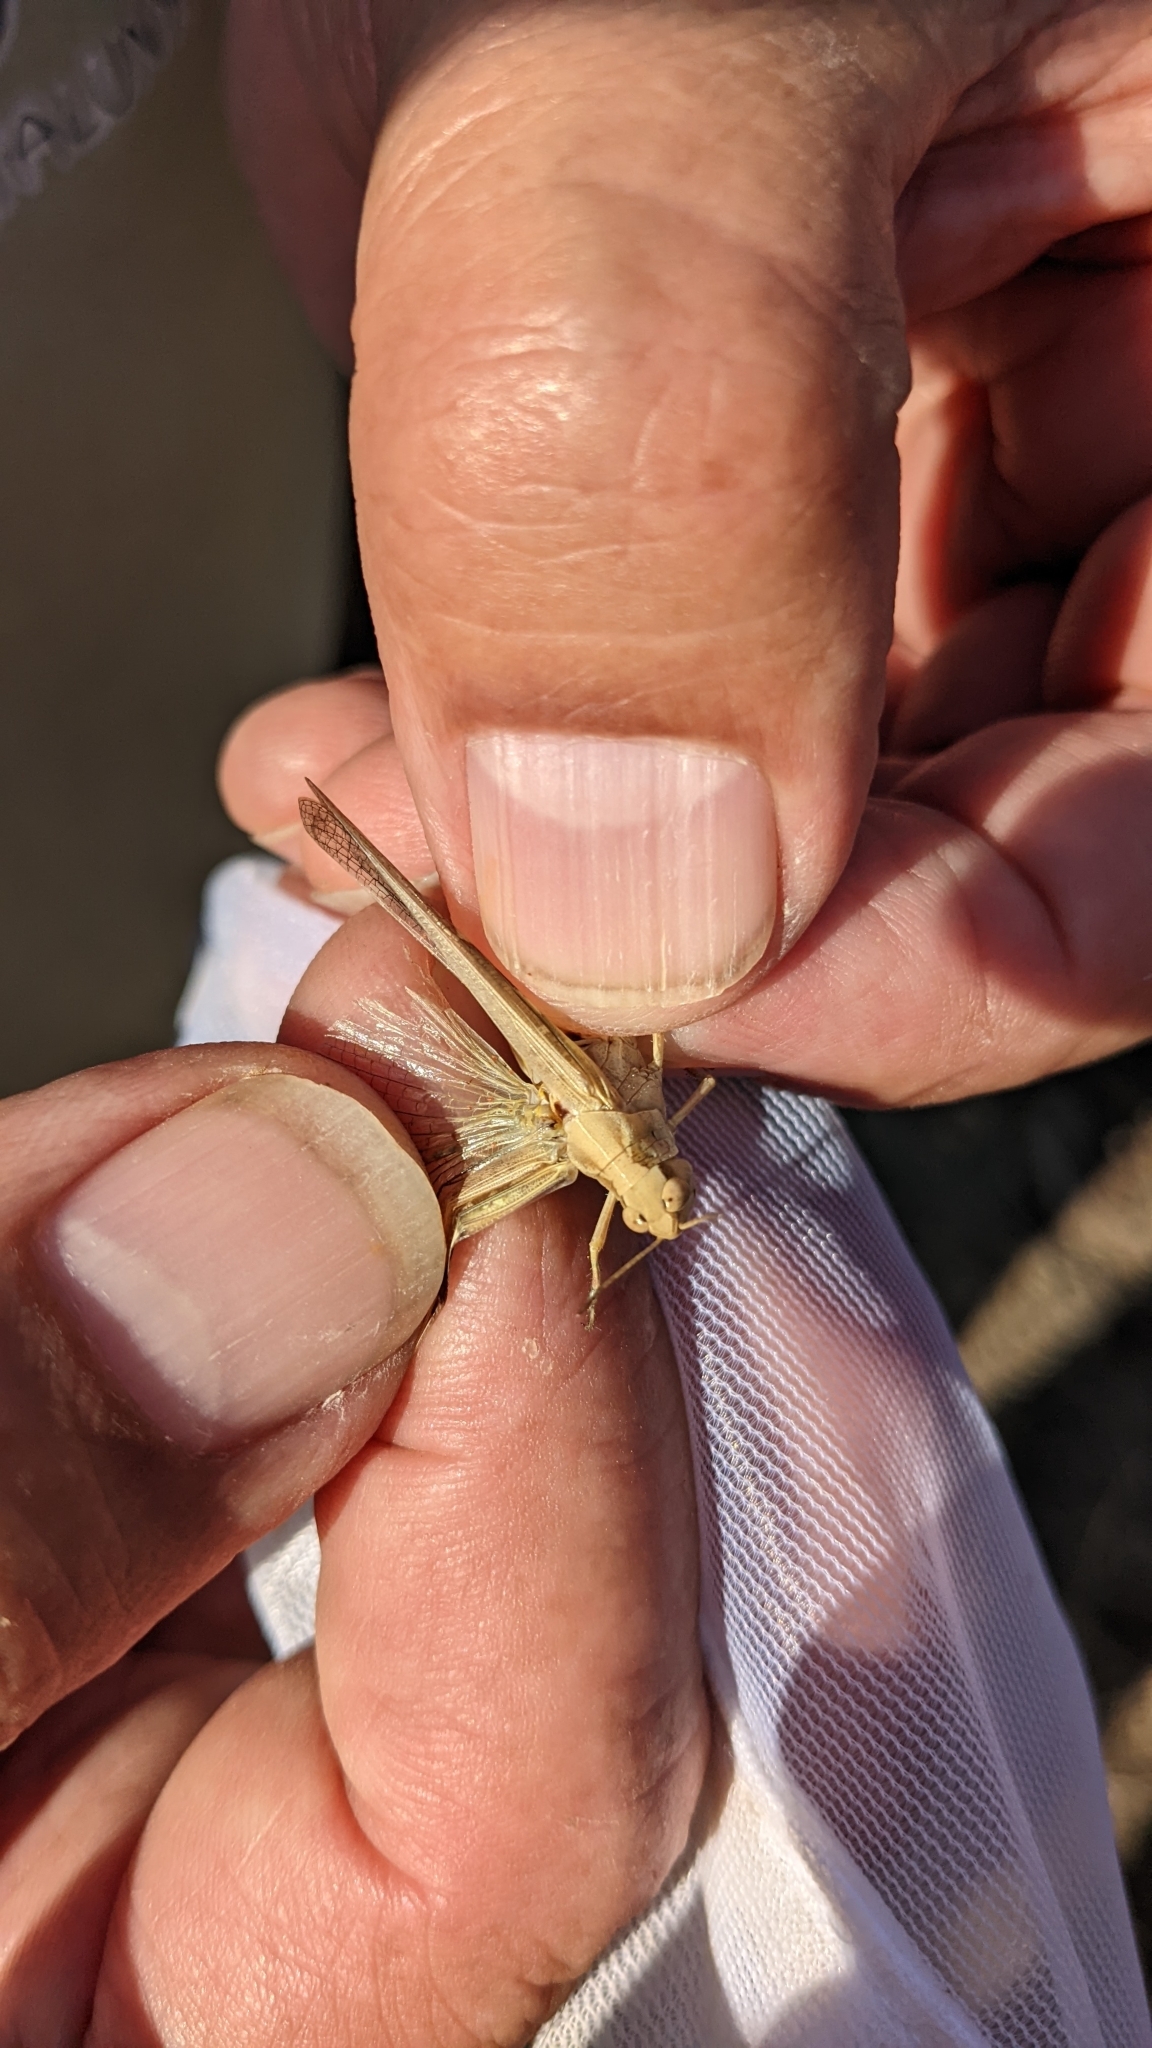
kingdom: Animalia
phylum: Arthropoda
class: Insecta
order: Orthoptera
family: Acrididae
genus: Aiolopus
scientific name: Aiolopus puissanti
